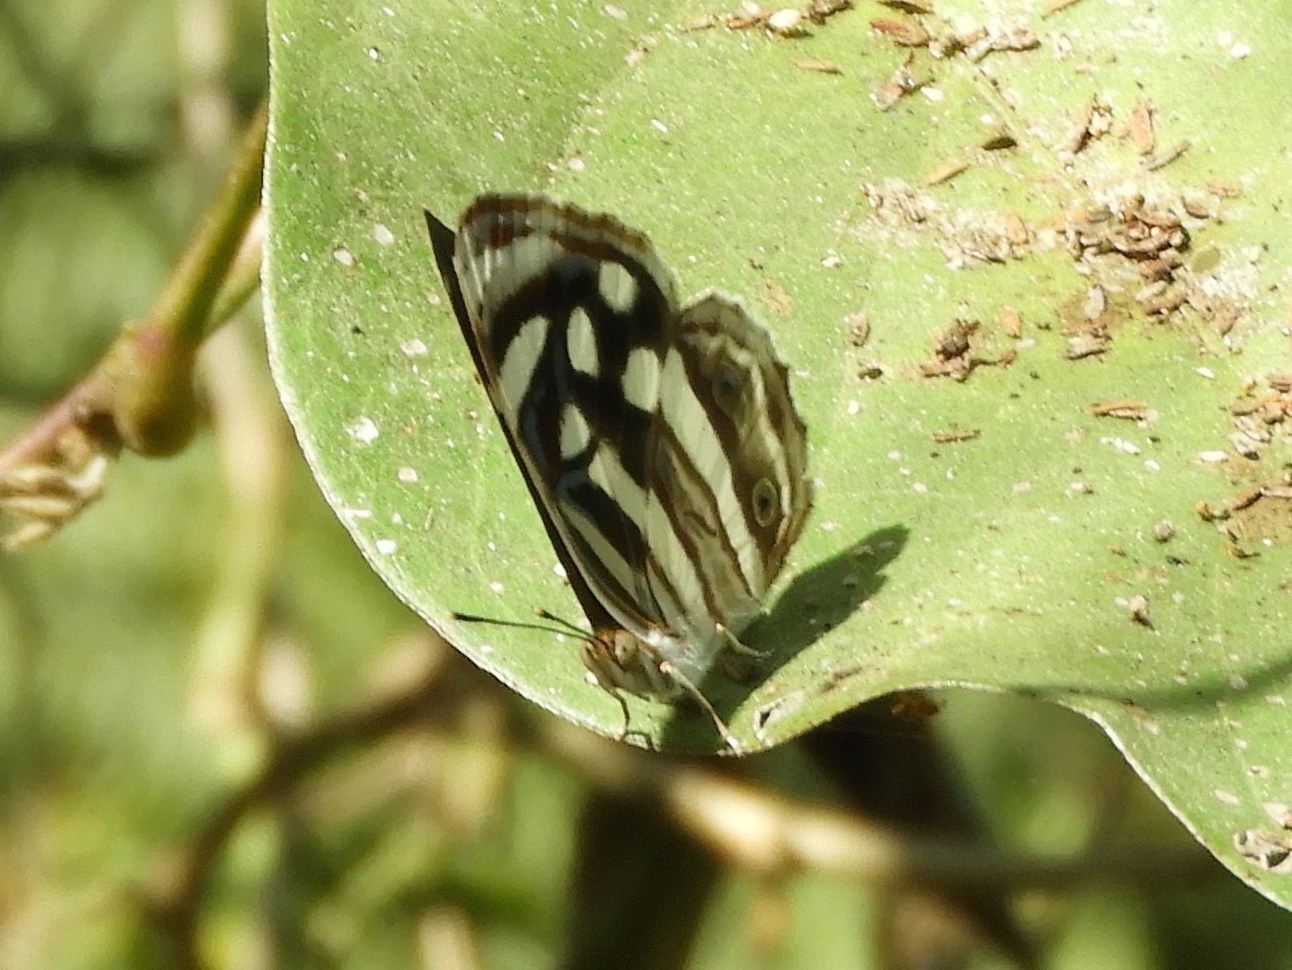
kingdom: Animalia
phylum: Arthropoda
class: Insecta
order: Lepidoptera
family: Nymphalidae
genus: Dynamine
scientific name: Dynamine mylitta
